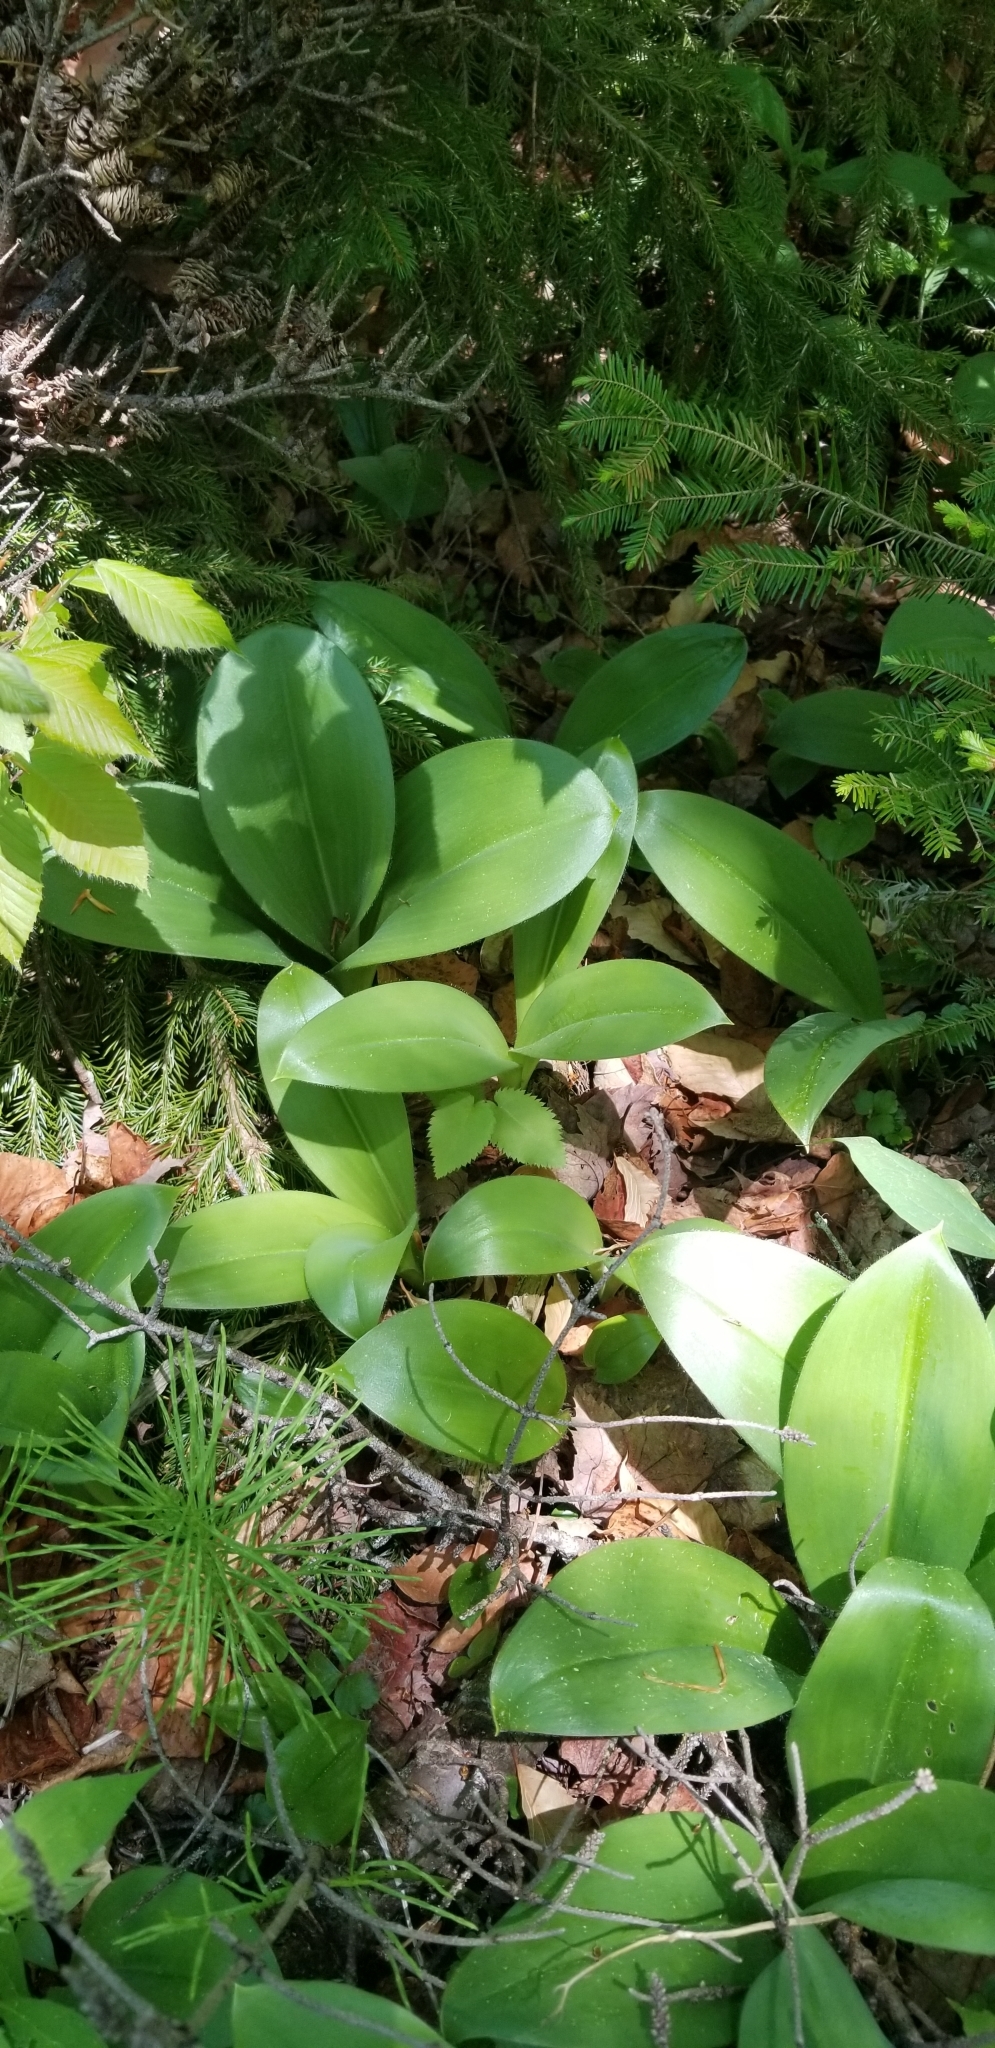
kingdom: Plantae
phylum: Tracheophyta
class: Liliopsida
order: Liliales
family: Liliaceae
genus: Clintonia
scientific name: Clintonia borealis
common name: Yellow clintonia
